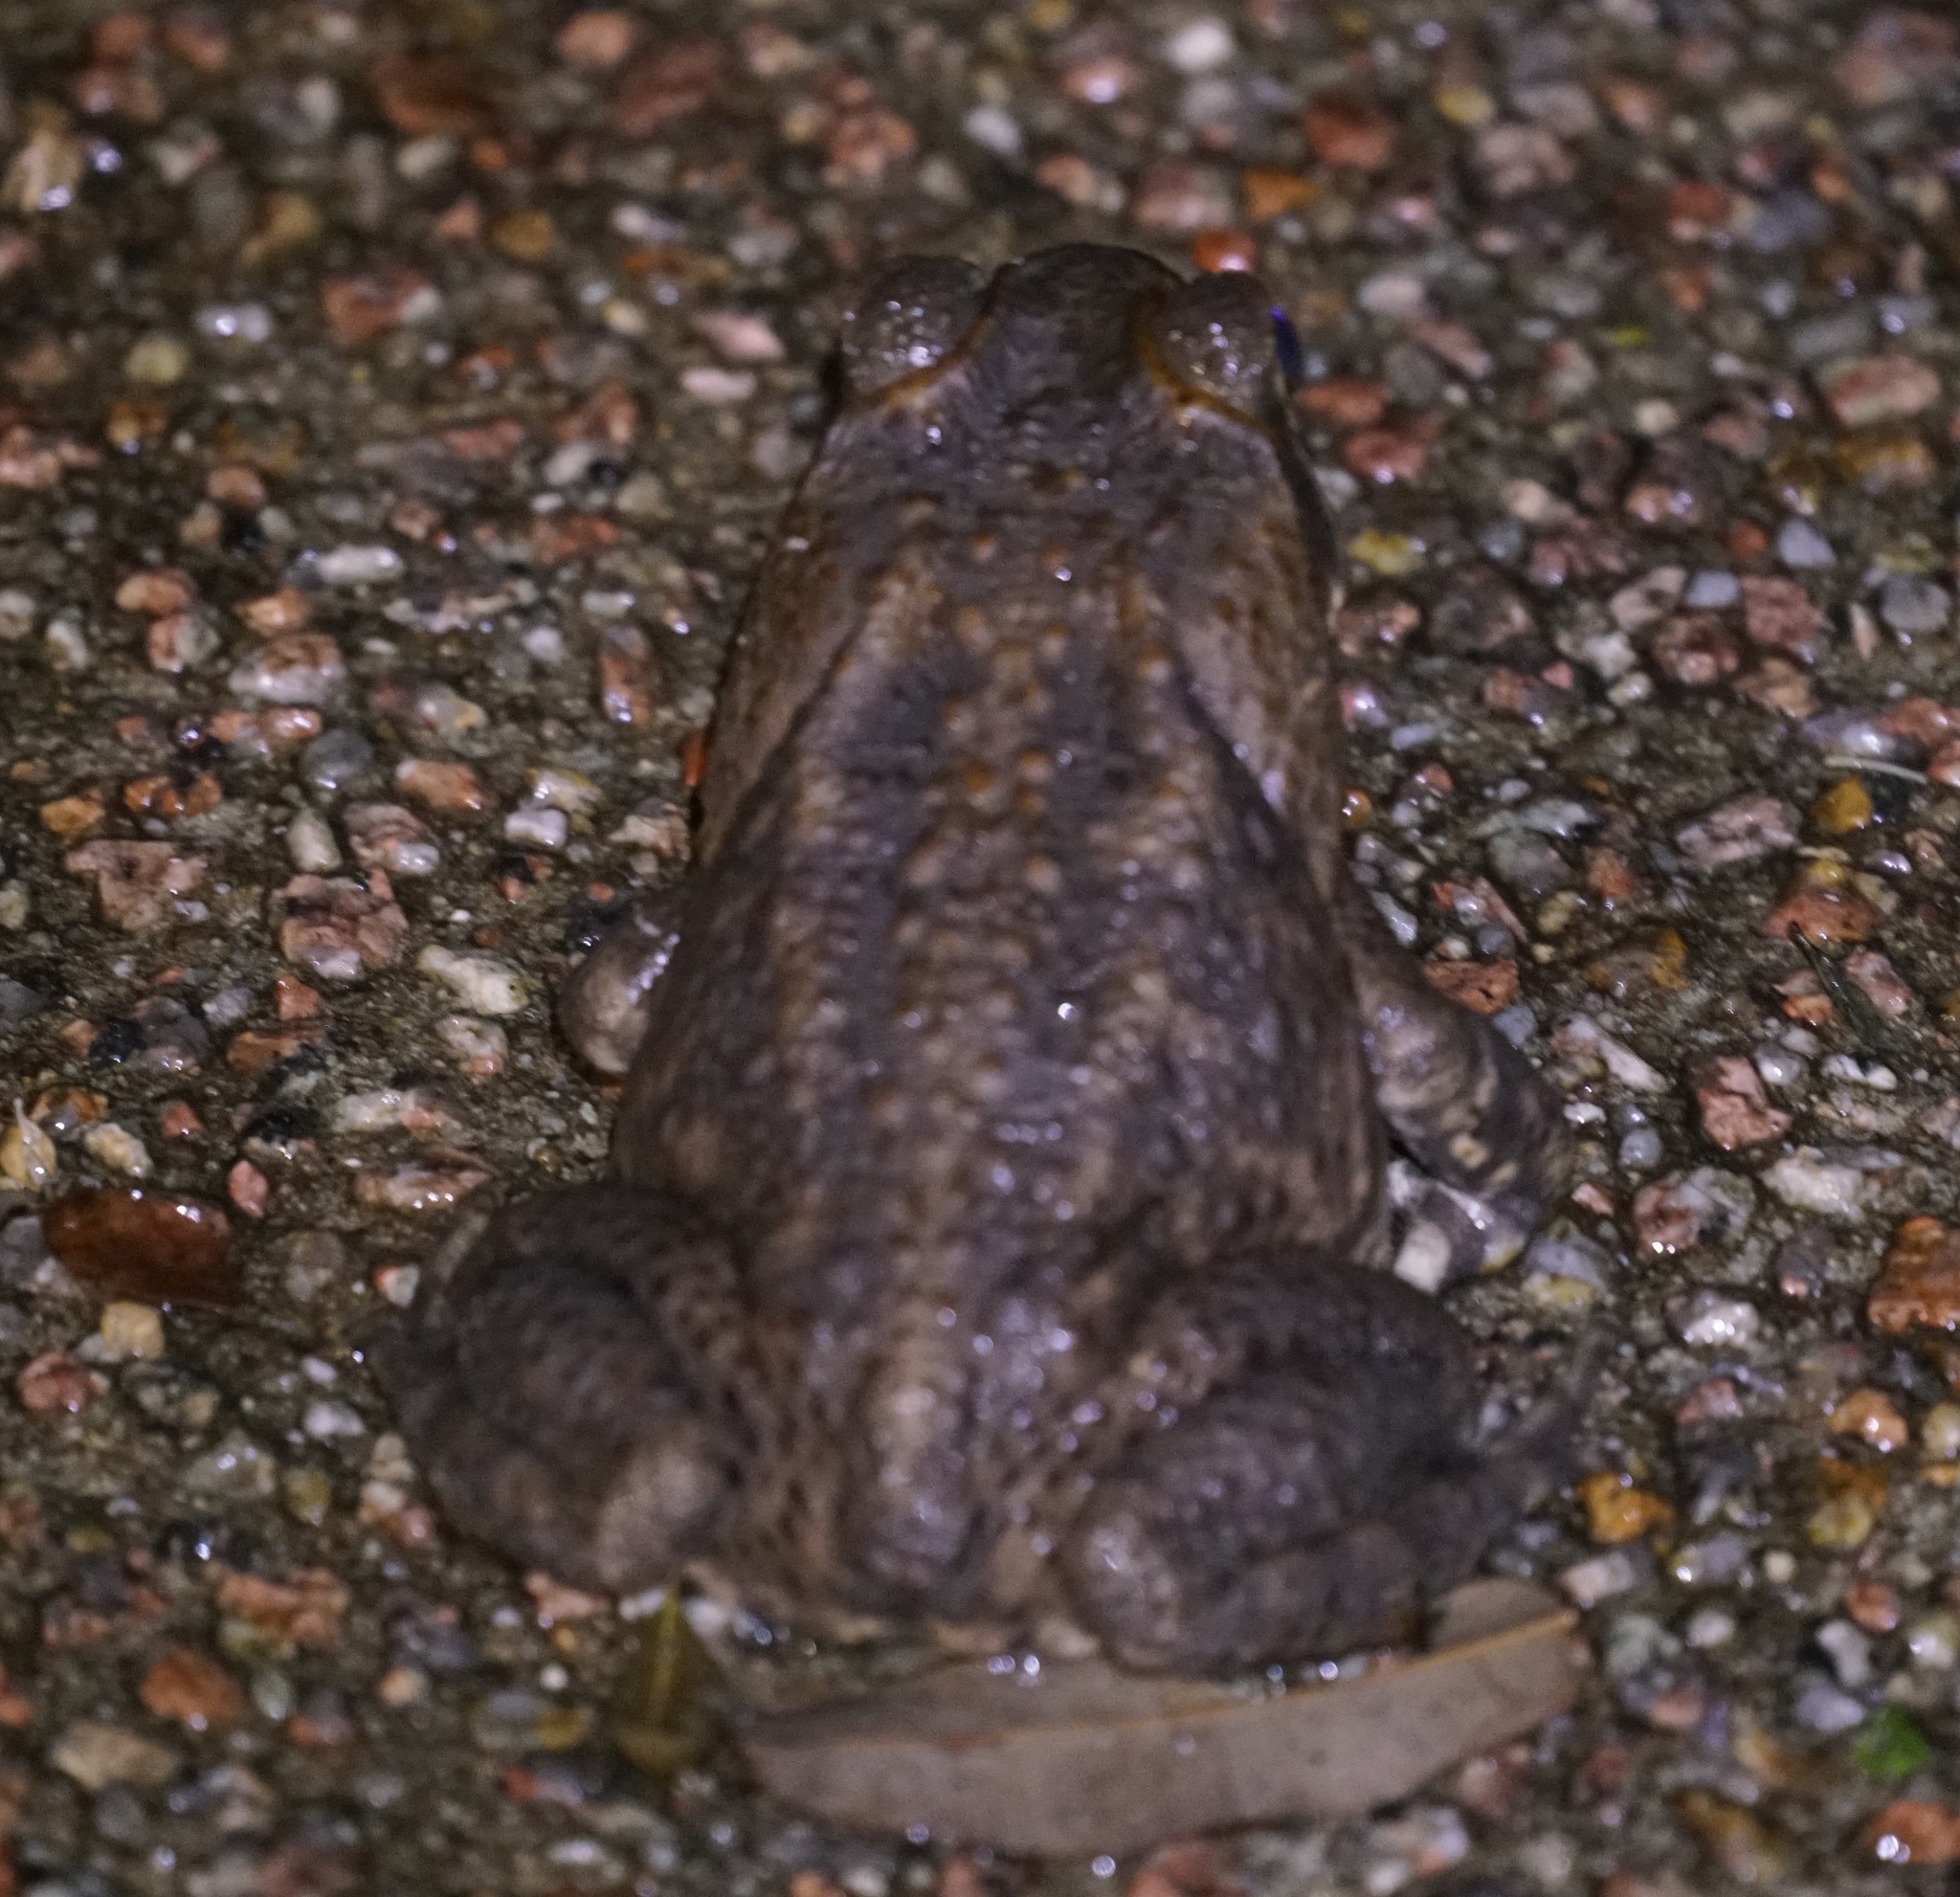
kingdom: Animalia
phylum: Chordata
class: Amphibia
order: Anura
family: Bufonidae
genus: Rhinella
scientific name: Rhinella marina
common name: Cane toad
